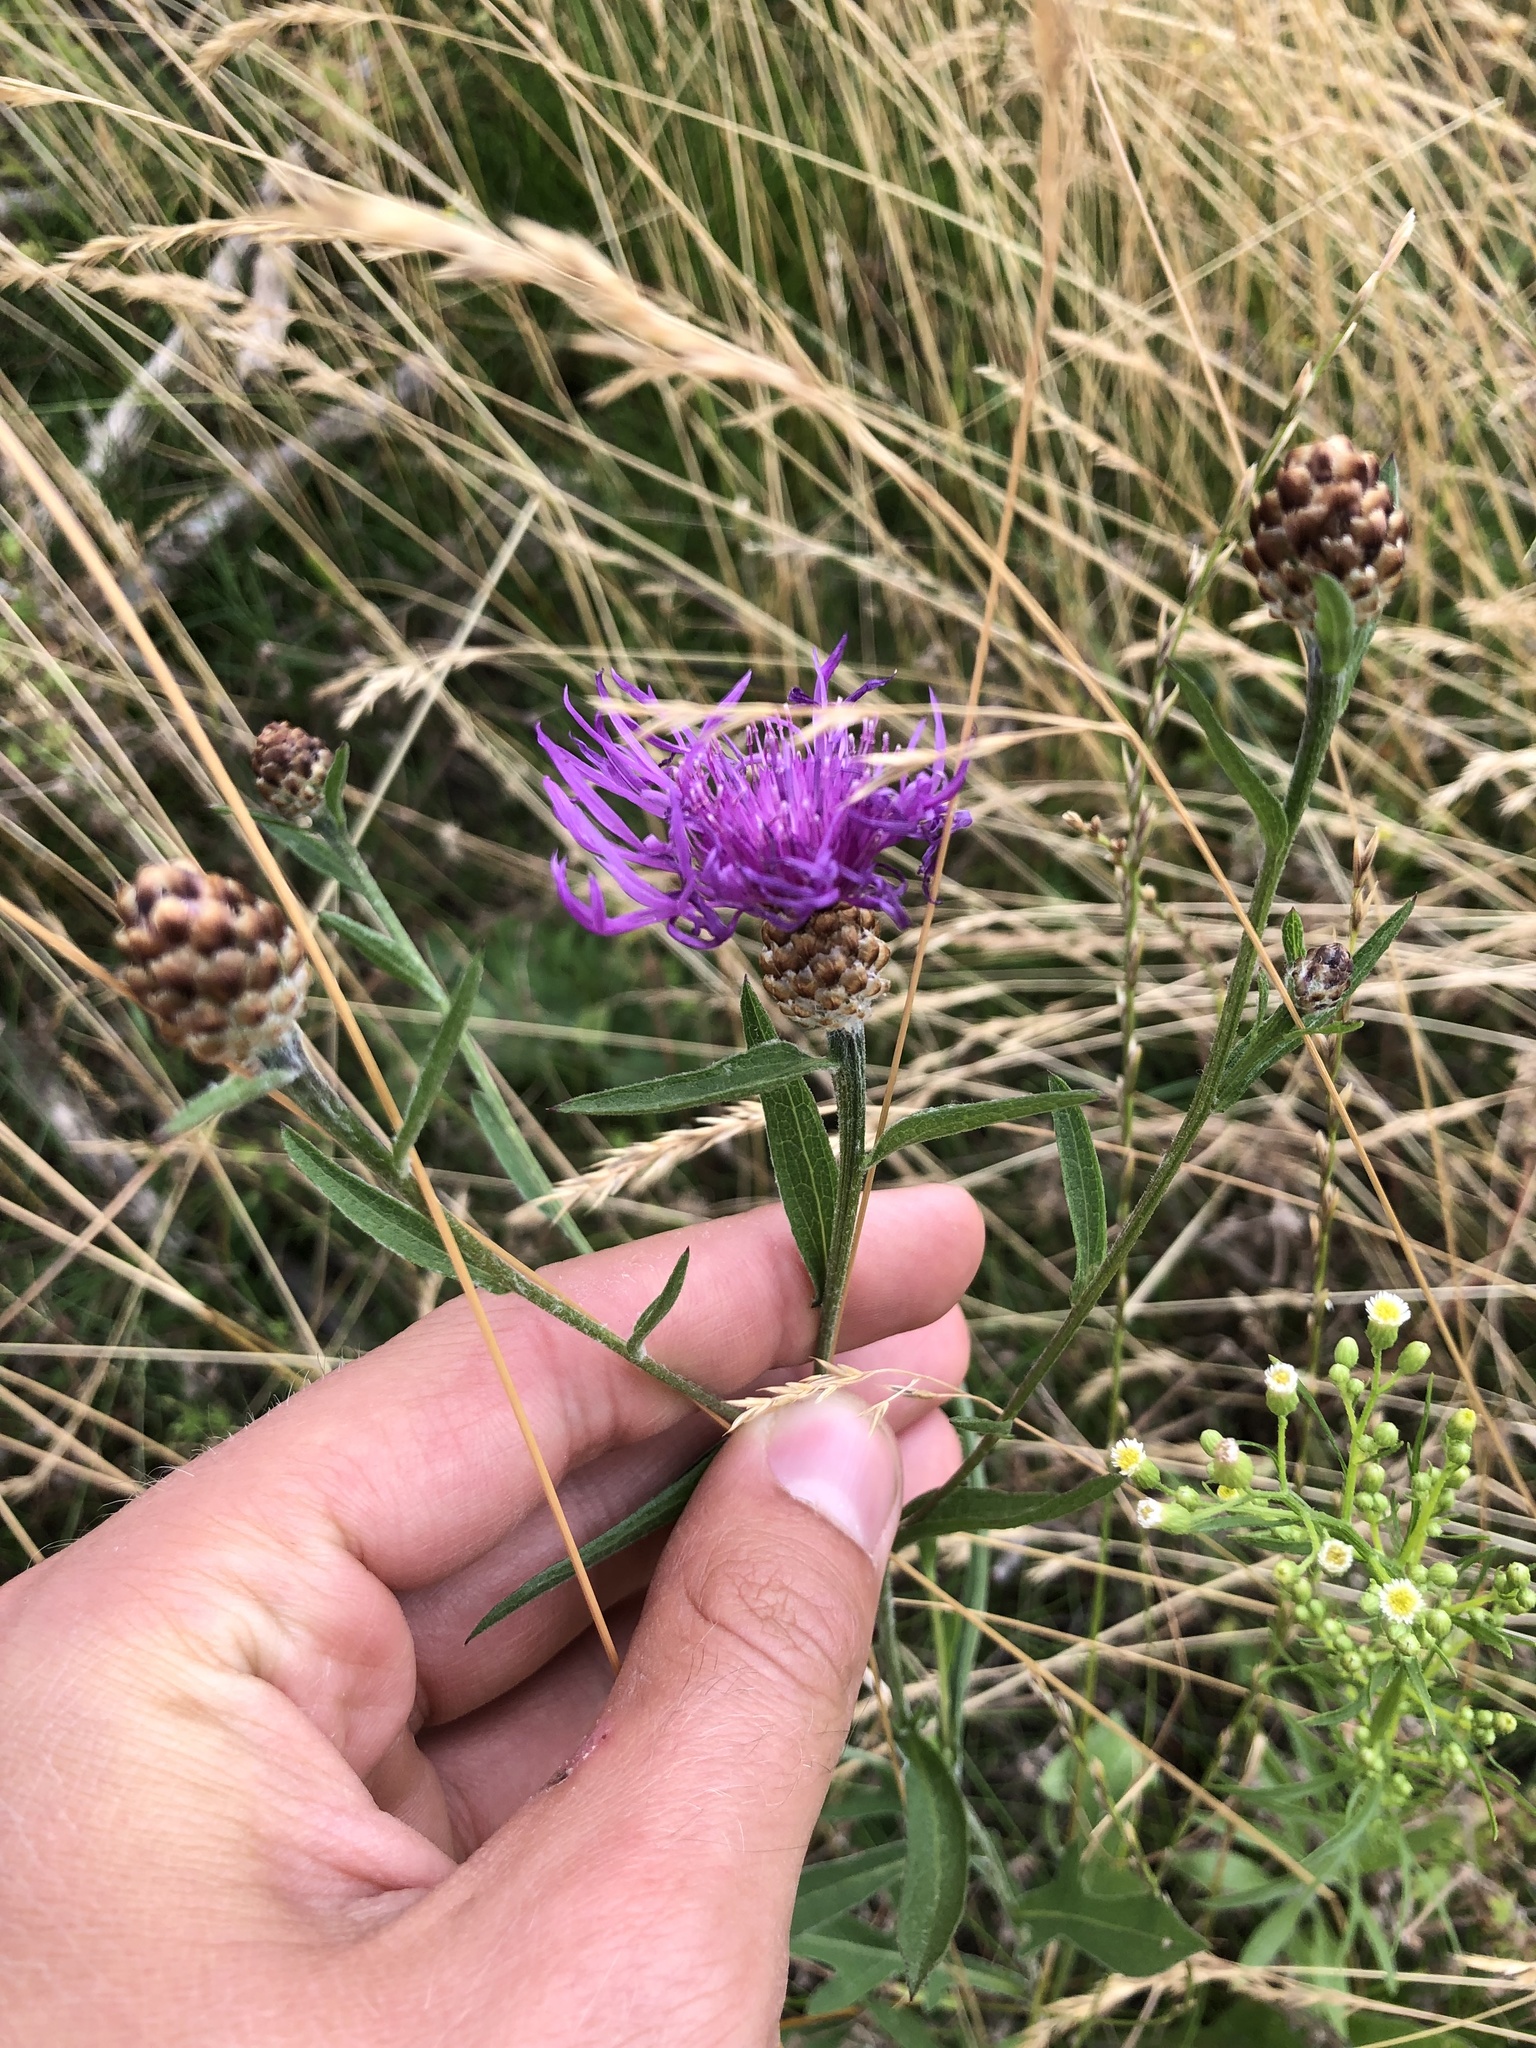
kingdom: Plantae
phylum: Tracheophyta
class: Magnoliopsida
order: Asterales
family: Asteraceae
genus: Centaurea
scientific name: Centaurea jacea
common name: Brown knapweed
